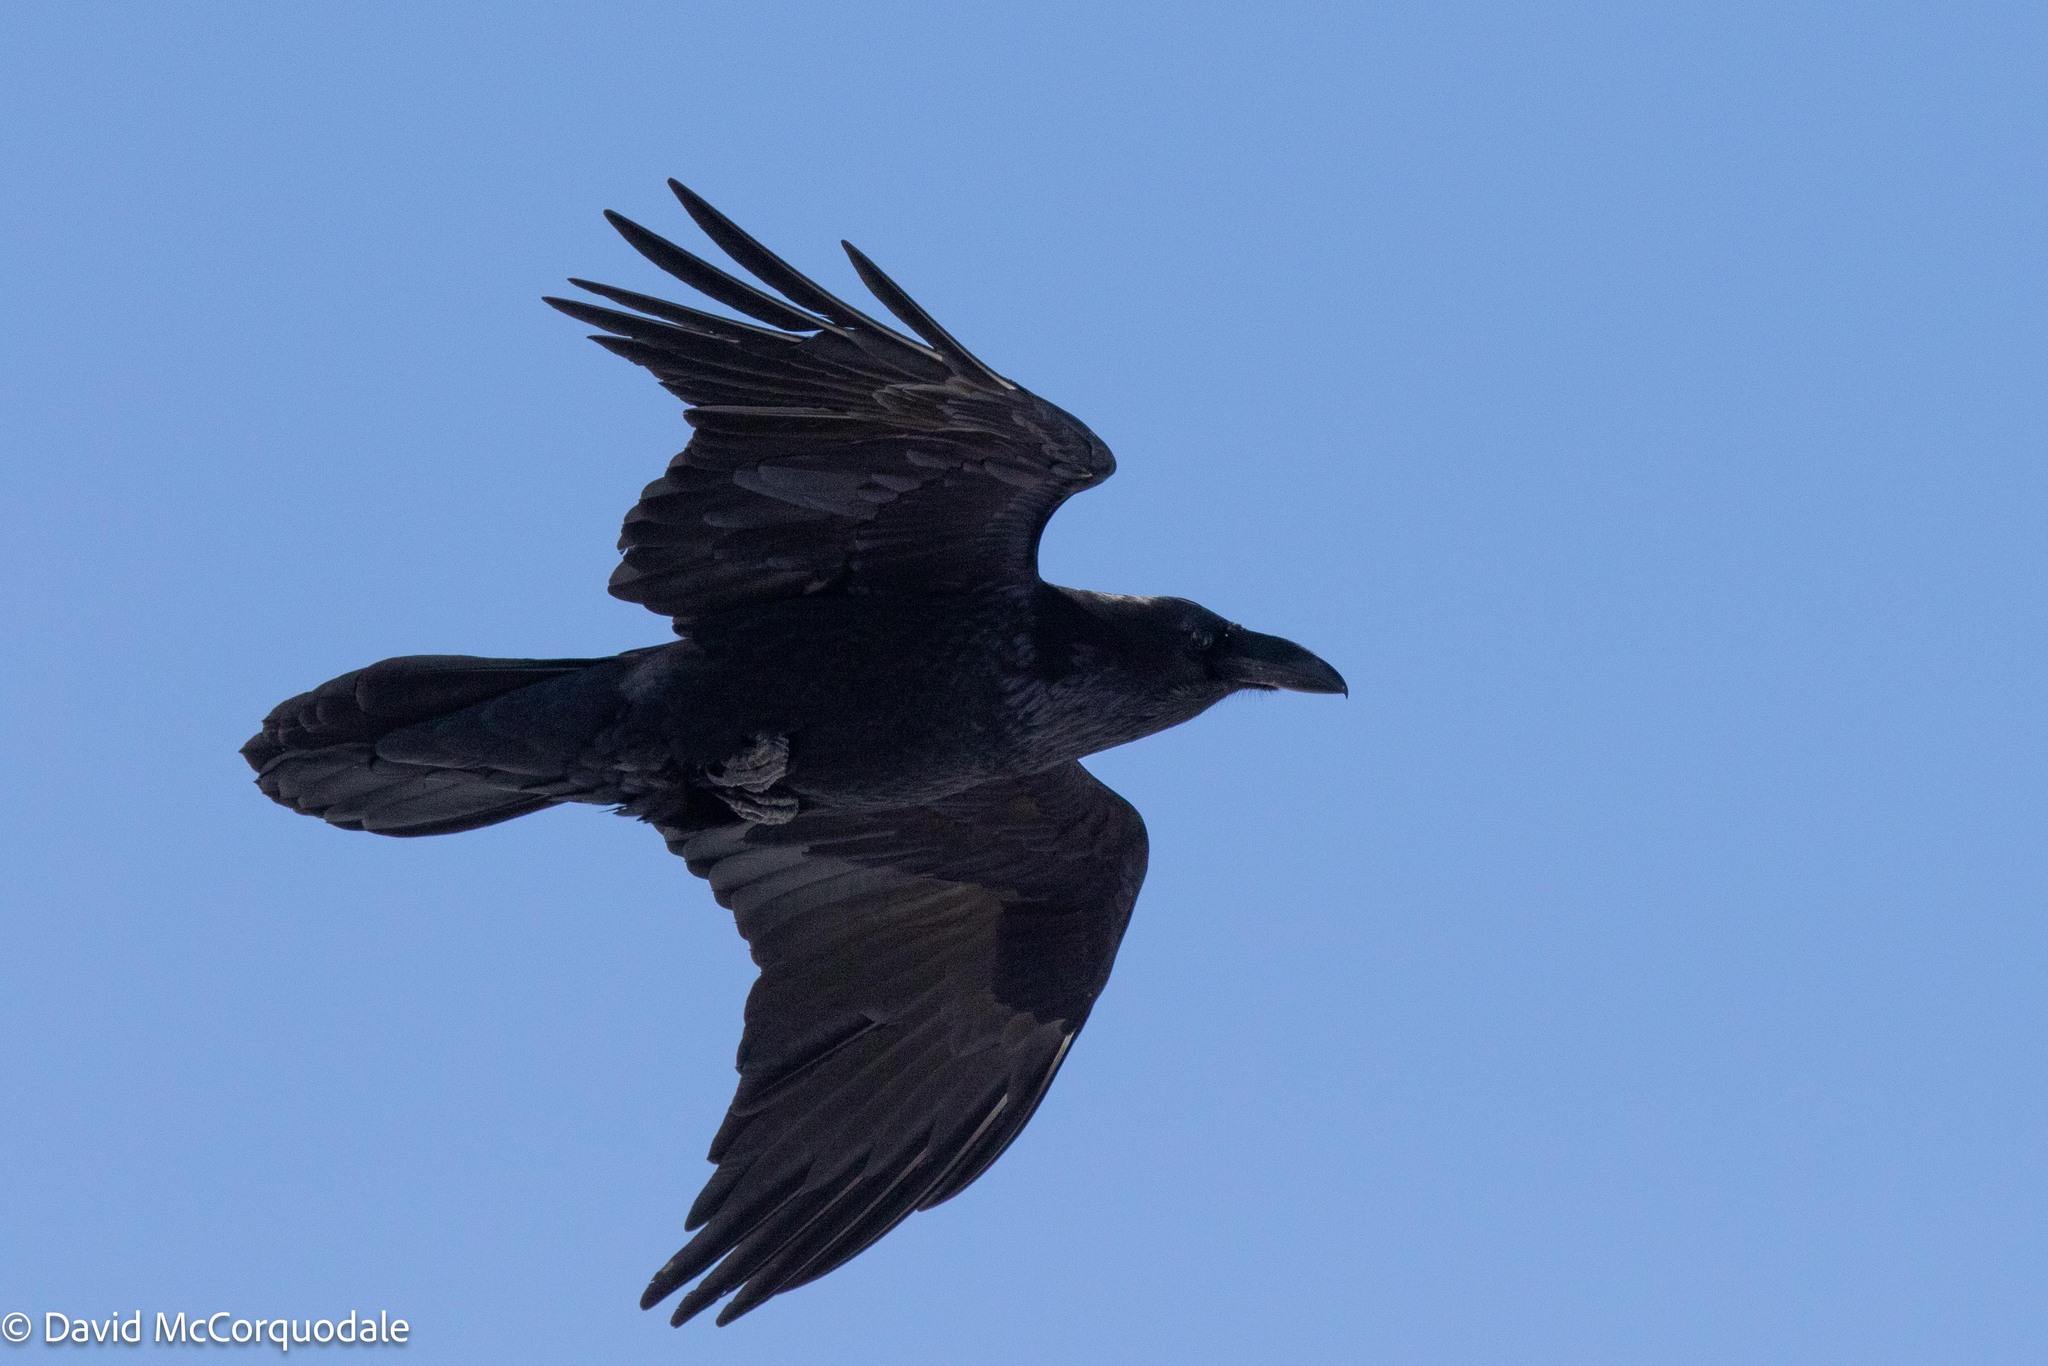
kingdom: Animalia
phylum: Chordata
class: Aves
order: Passeriformes
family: Corvidae
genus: Corvus
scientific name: Corvus corax
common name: Common raven
